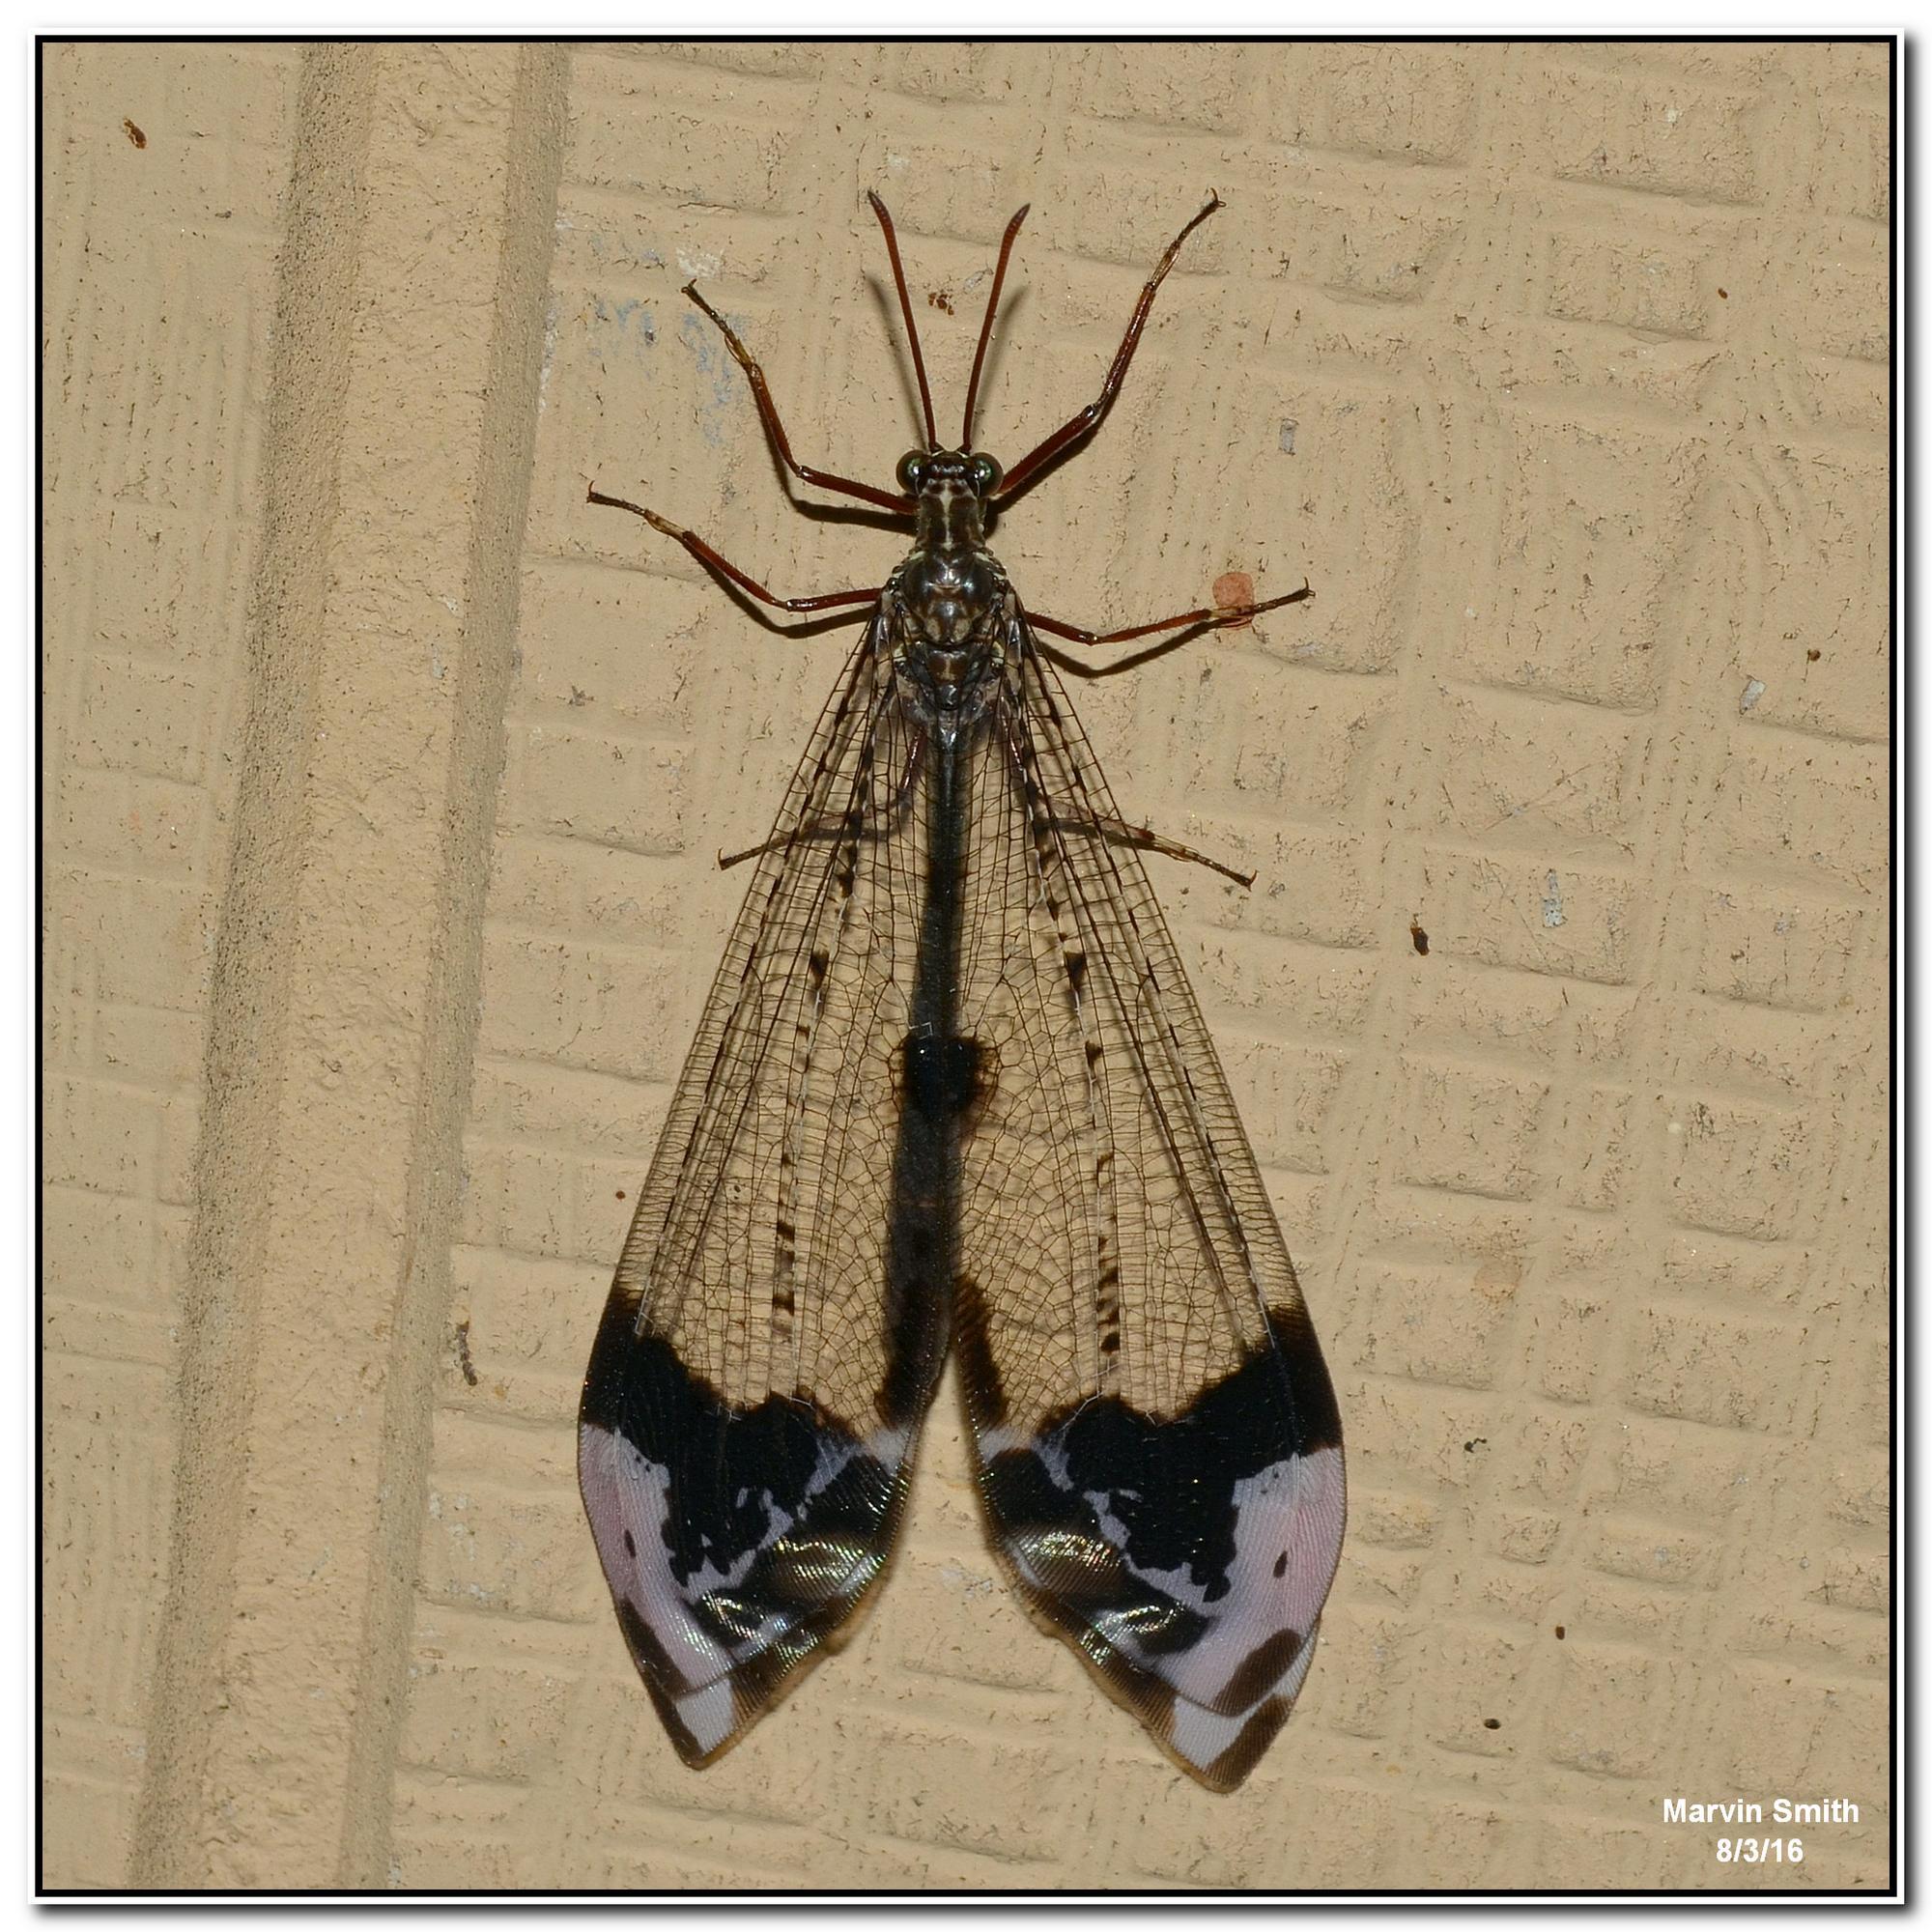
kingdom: Animalia
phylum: Arthropoda
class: Insecta
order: Neuroptera
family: Myrmeleontidae
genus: Glenurus
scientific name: Glenurus gratus
